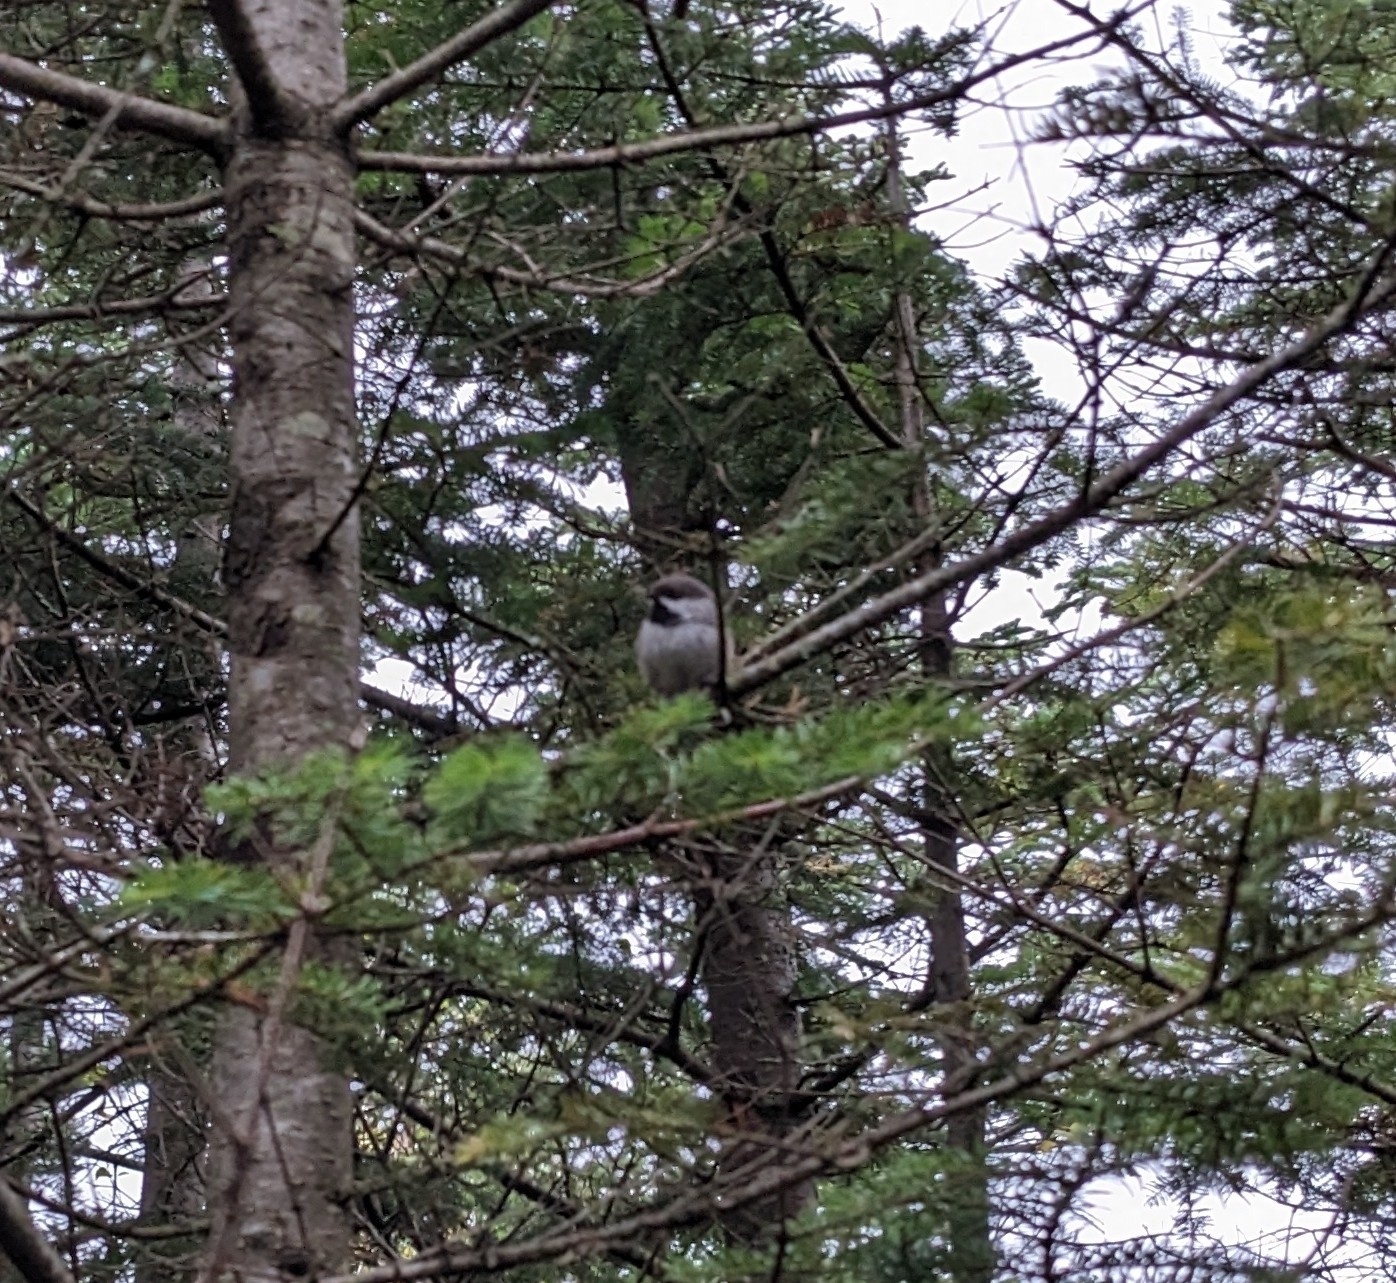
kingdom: Animalia
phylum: Chordata
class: Aves
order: Passeriformes
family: Paridae
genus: Poecile
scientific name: Poecile hudsonicus
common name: Boreal chickadee
